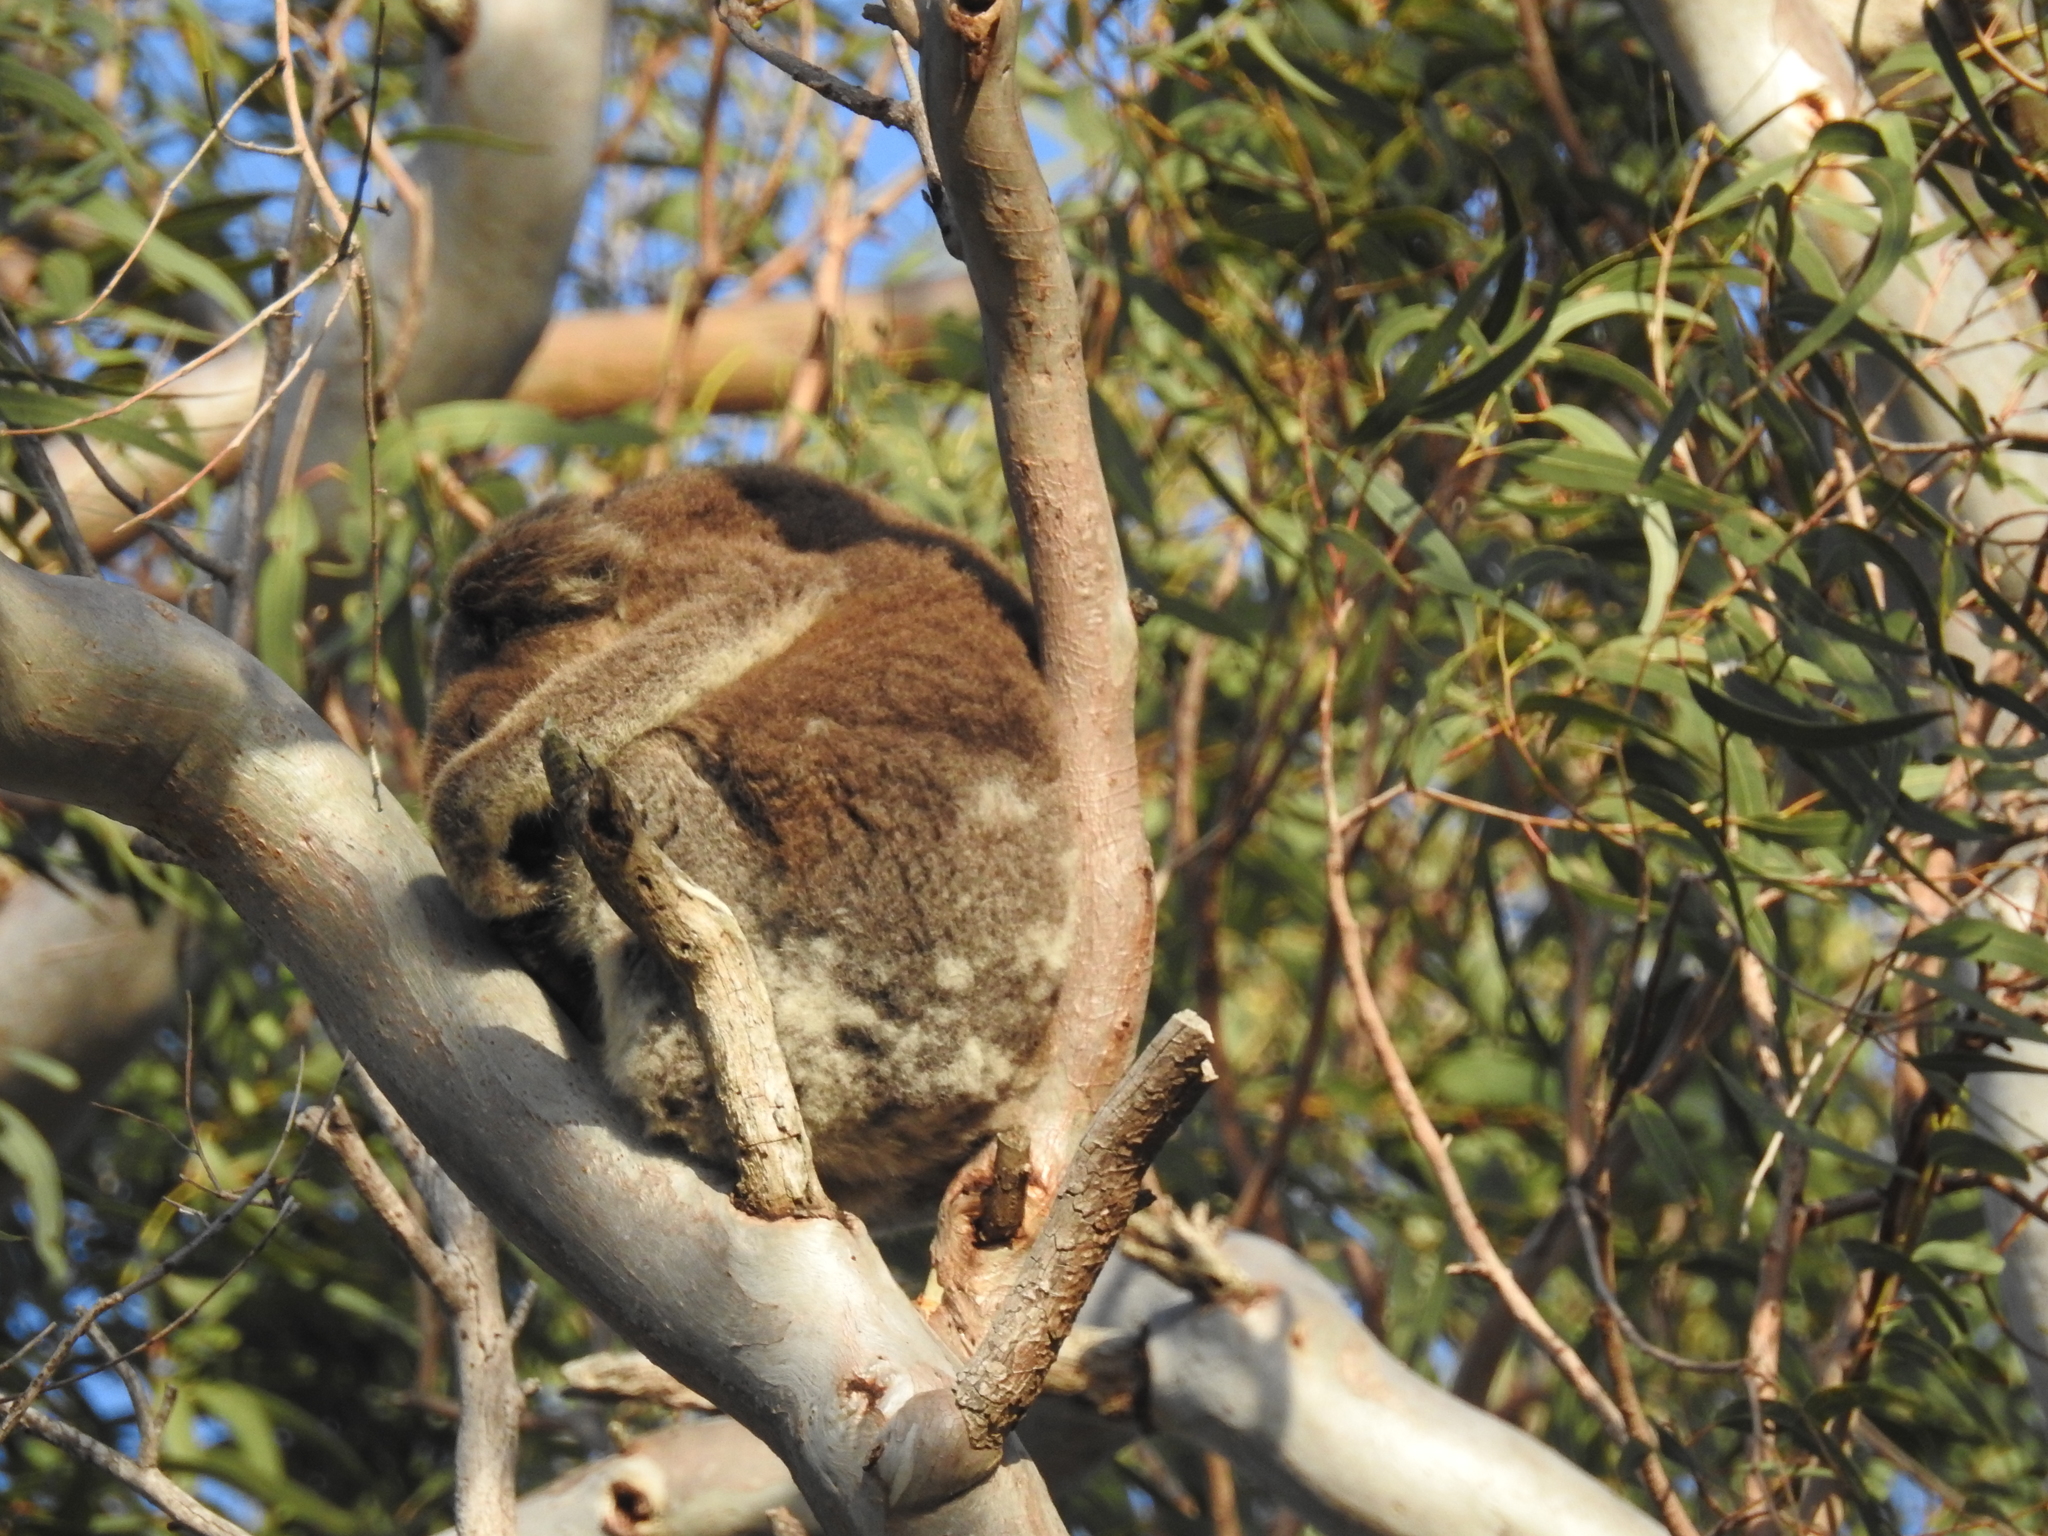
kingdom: Animalia
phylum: Chordata
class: Mammalia
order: Diprotodontia
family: Phascolarctidae
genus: Phascolarctos
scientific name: Phascolarctos cinereus
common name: Koala
